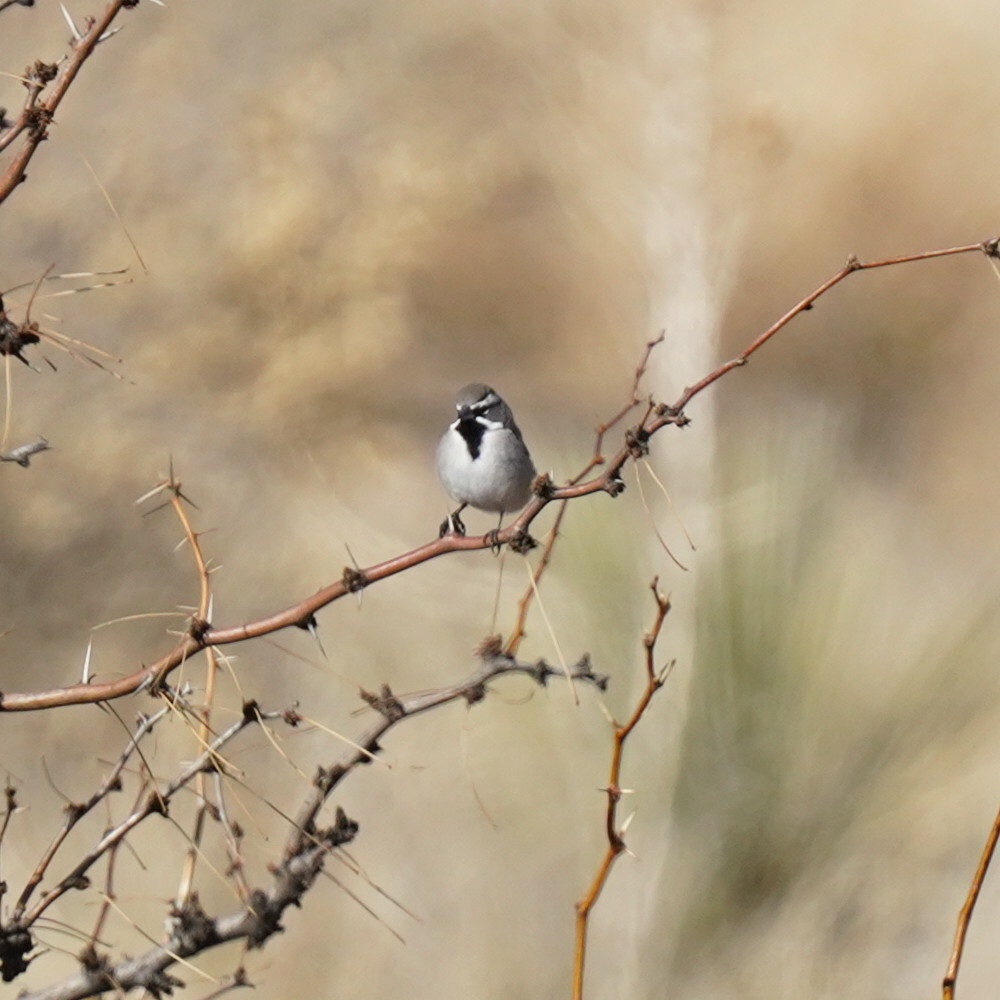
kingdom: Animalia
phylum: Chordata
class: Aves
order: Passeriformes
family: Passerellidae
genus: Amphispiza
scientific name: Amphispiza bilineata
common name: Black-throated sparrow
